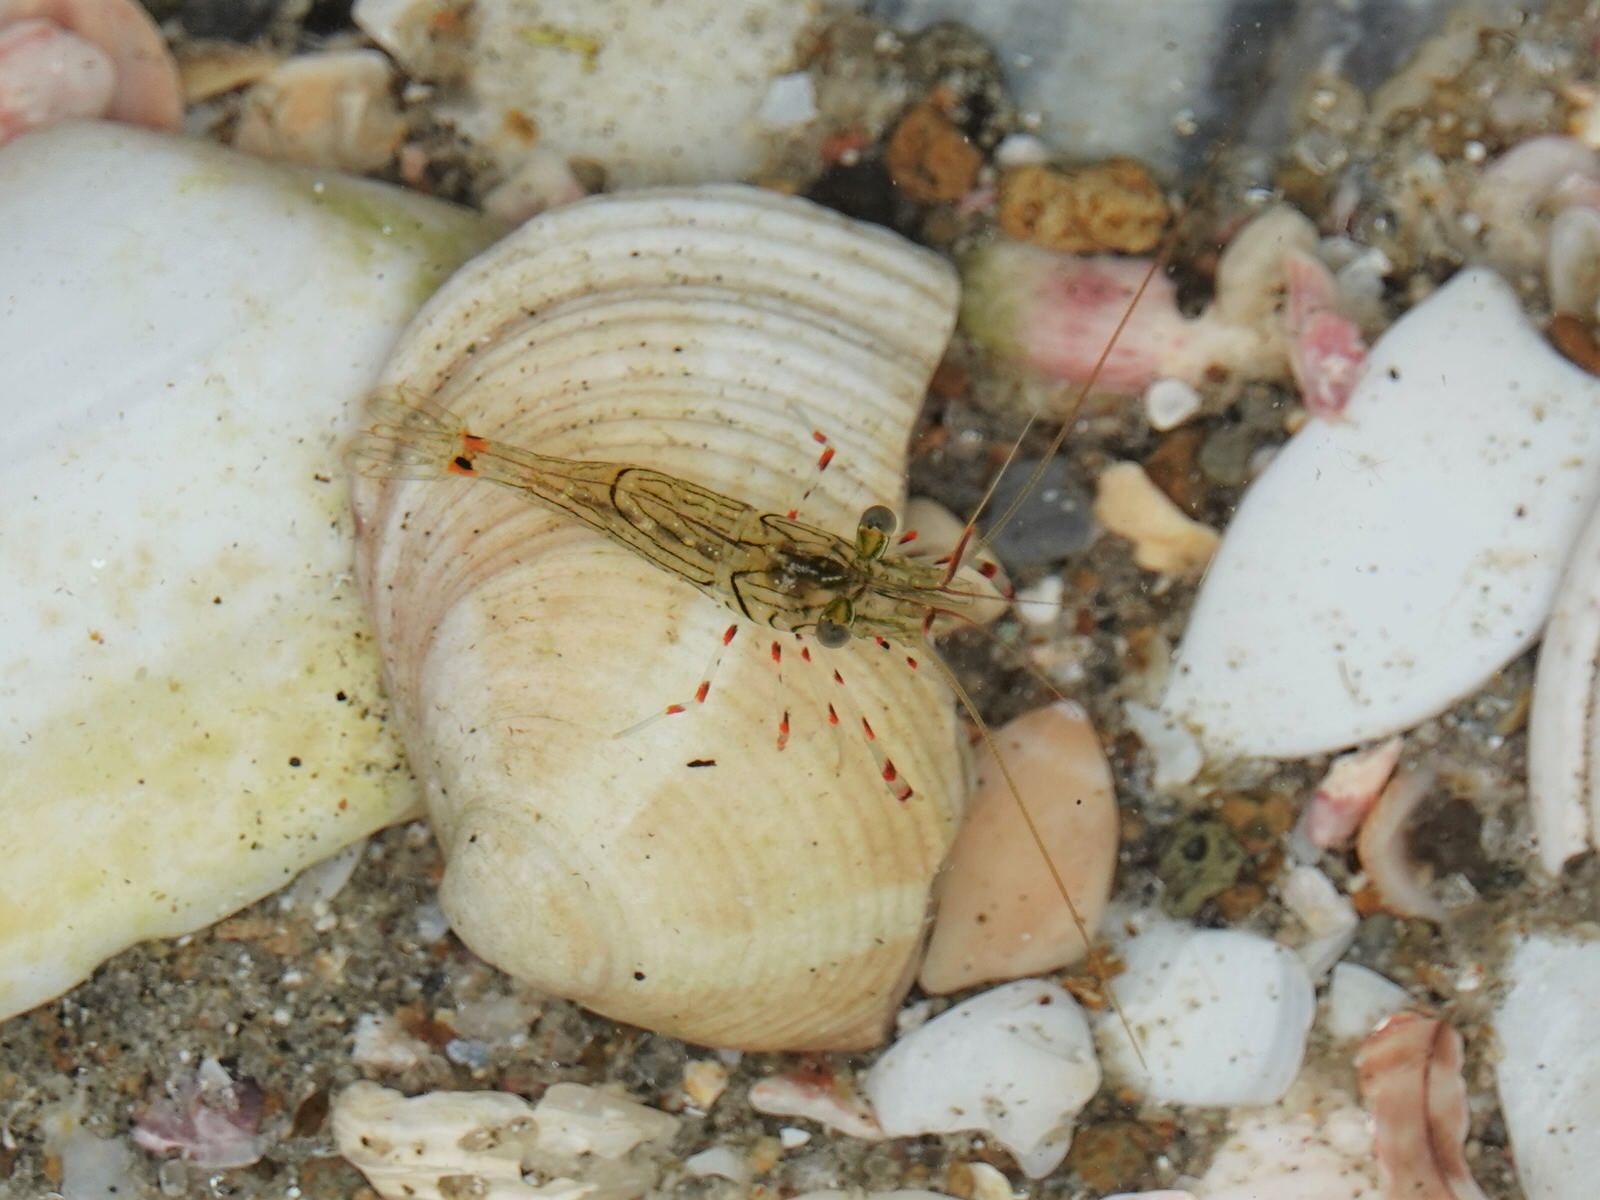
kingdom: Animalia
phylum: Arthropoda
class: Malacostraca
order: Decapoda
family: Palaemonidae
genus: Palaemon
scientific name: Palaemon affinis
